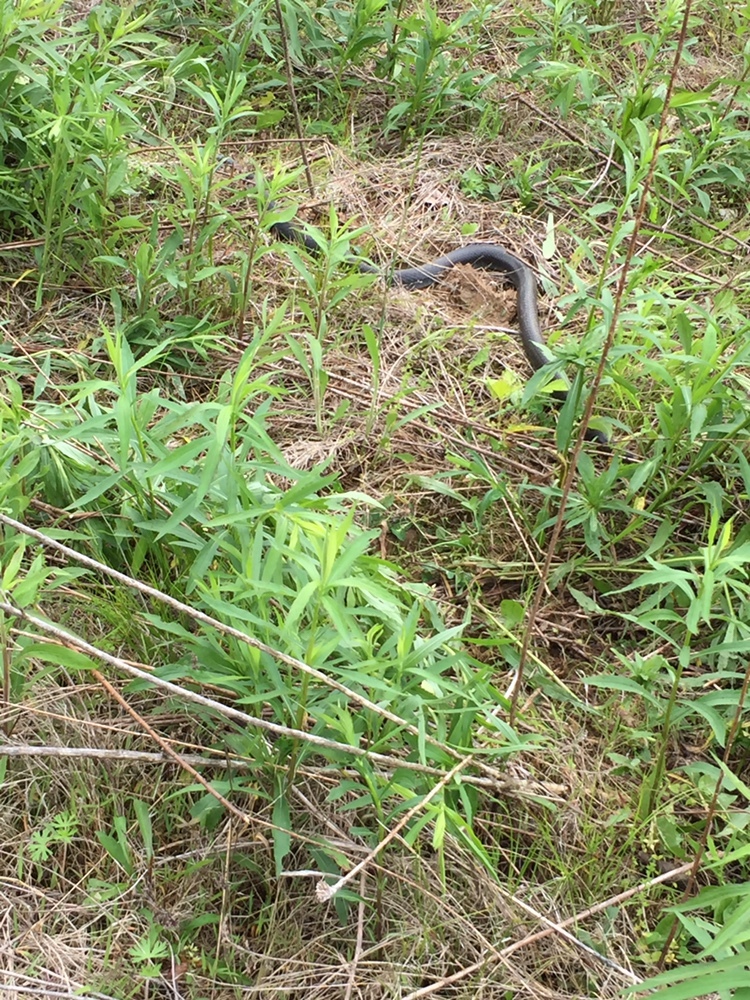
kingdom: Animalia
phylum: Chordata
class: Squamata
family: Colubridae
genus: Coluber
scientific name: Coluber constrictor
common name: Eastern racer
